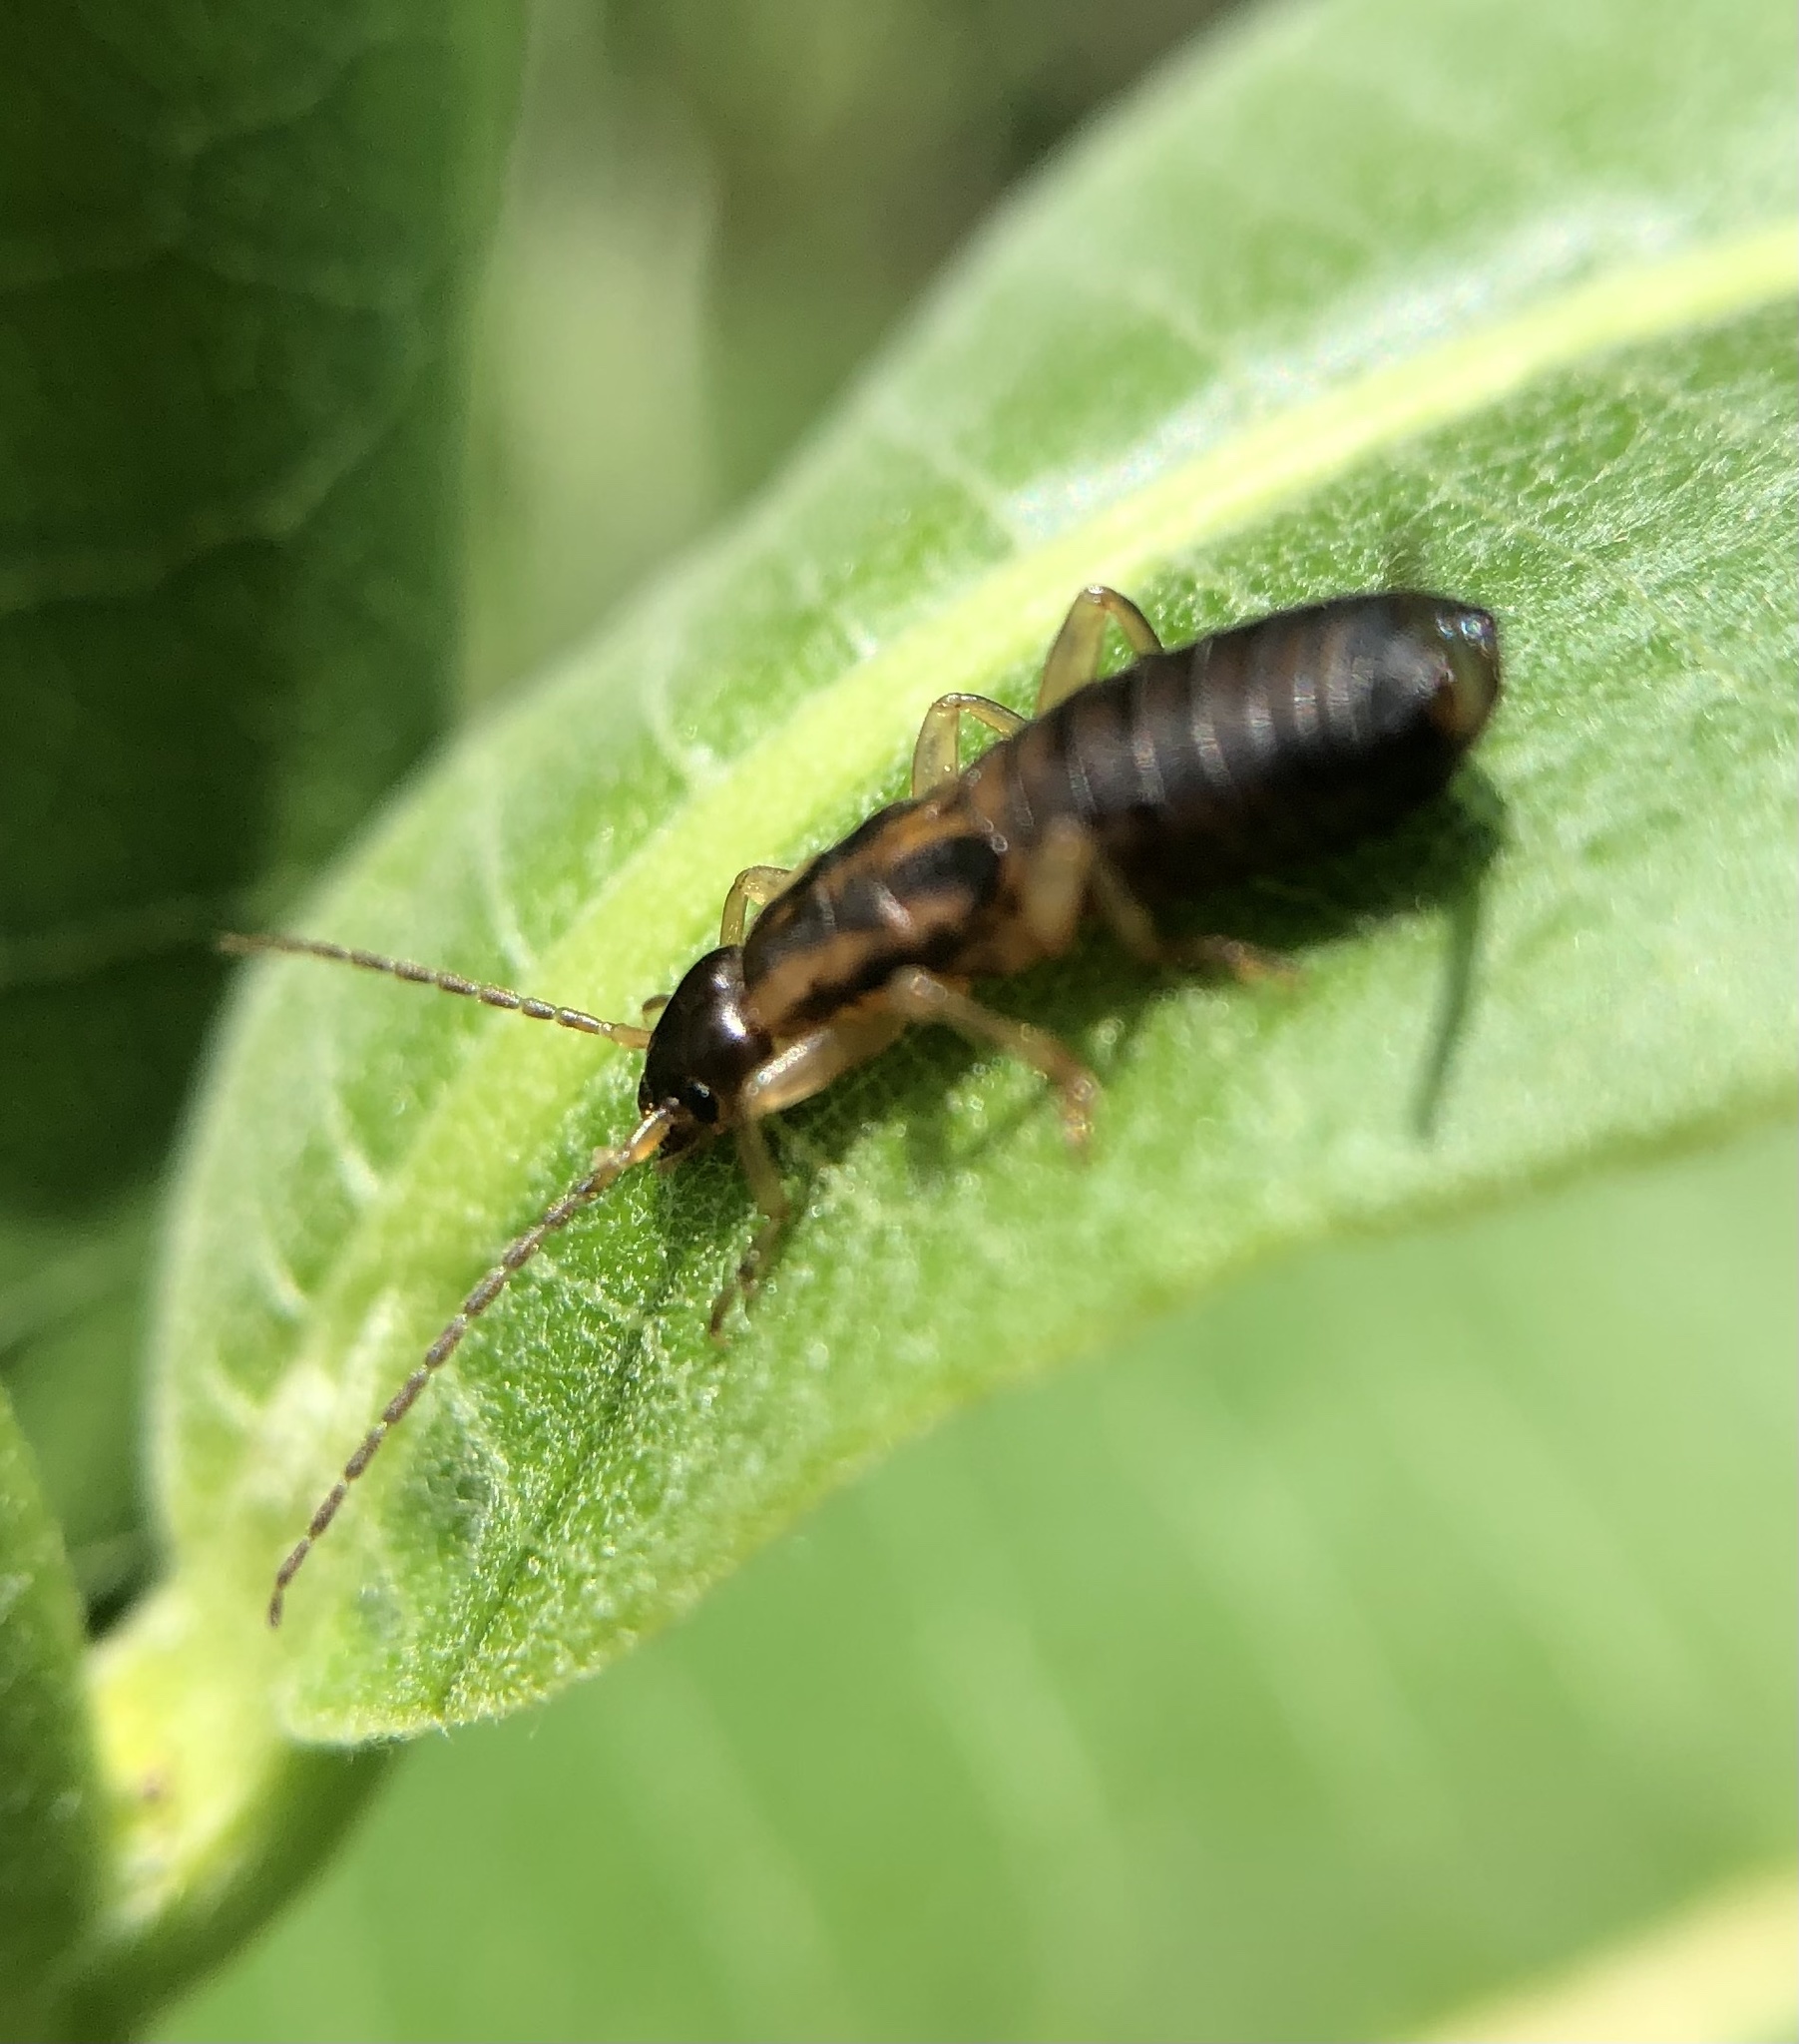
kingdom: Animalia
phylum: Arthropoda
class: Insecta
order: Dermaptera
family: Forficulidae
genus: Forficula
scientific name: Forficula
